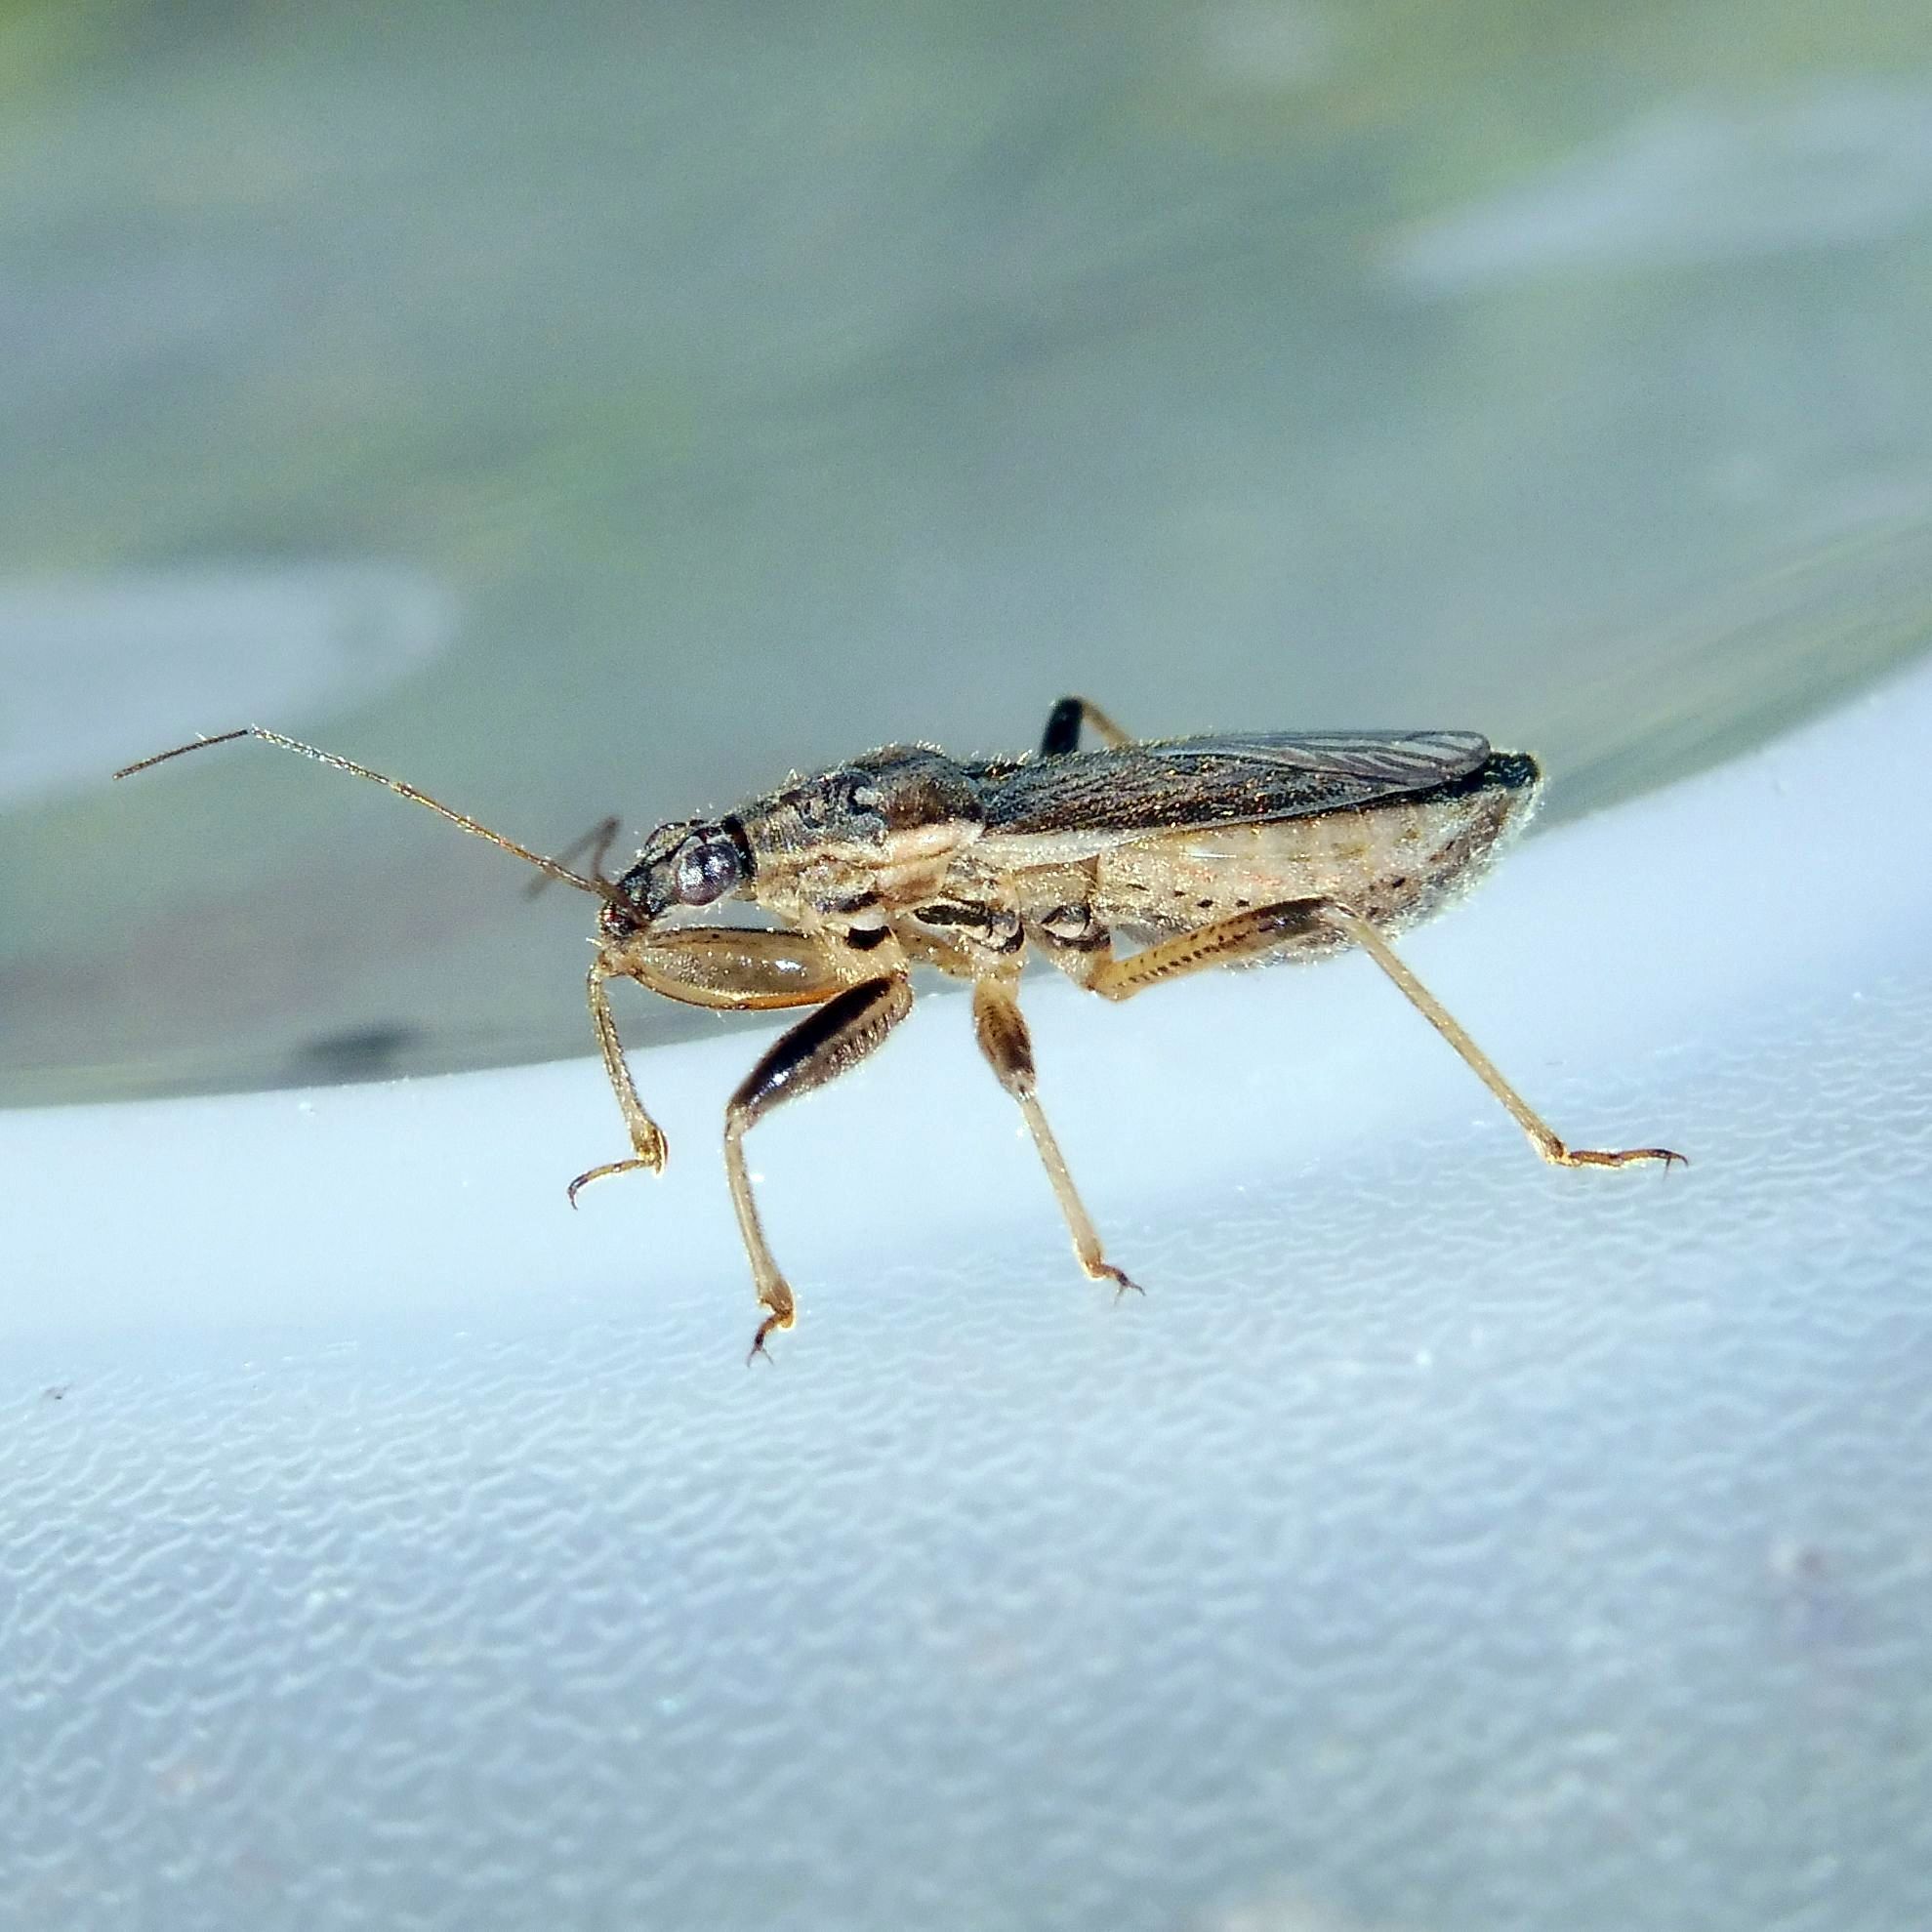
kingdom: Animalia
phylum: Arthropoda
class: Insecta
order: Hemiptera
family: Nabidae
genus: Himacerus
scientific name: Himacerus major
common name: Damsel bug
